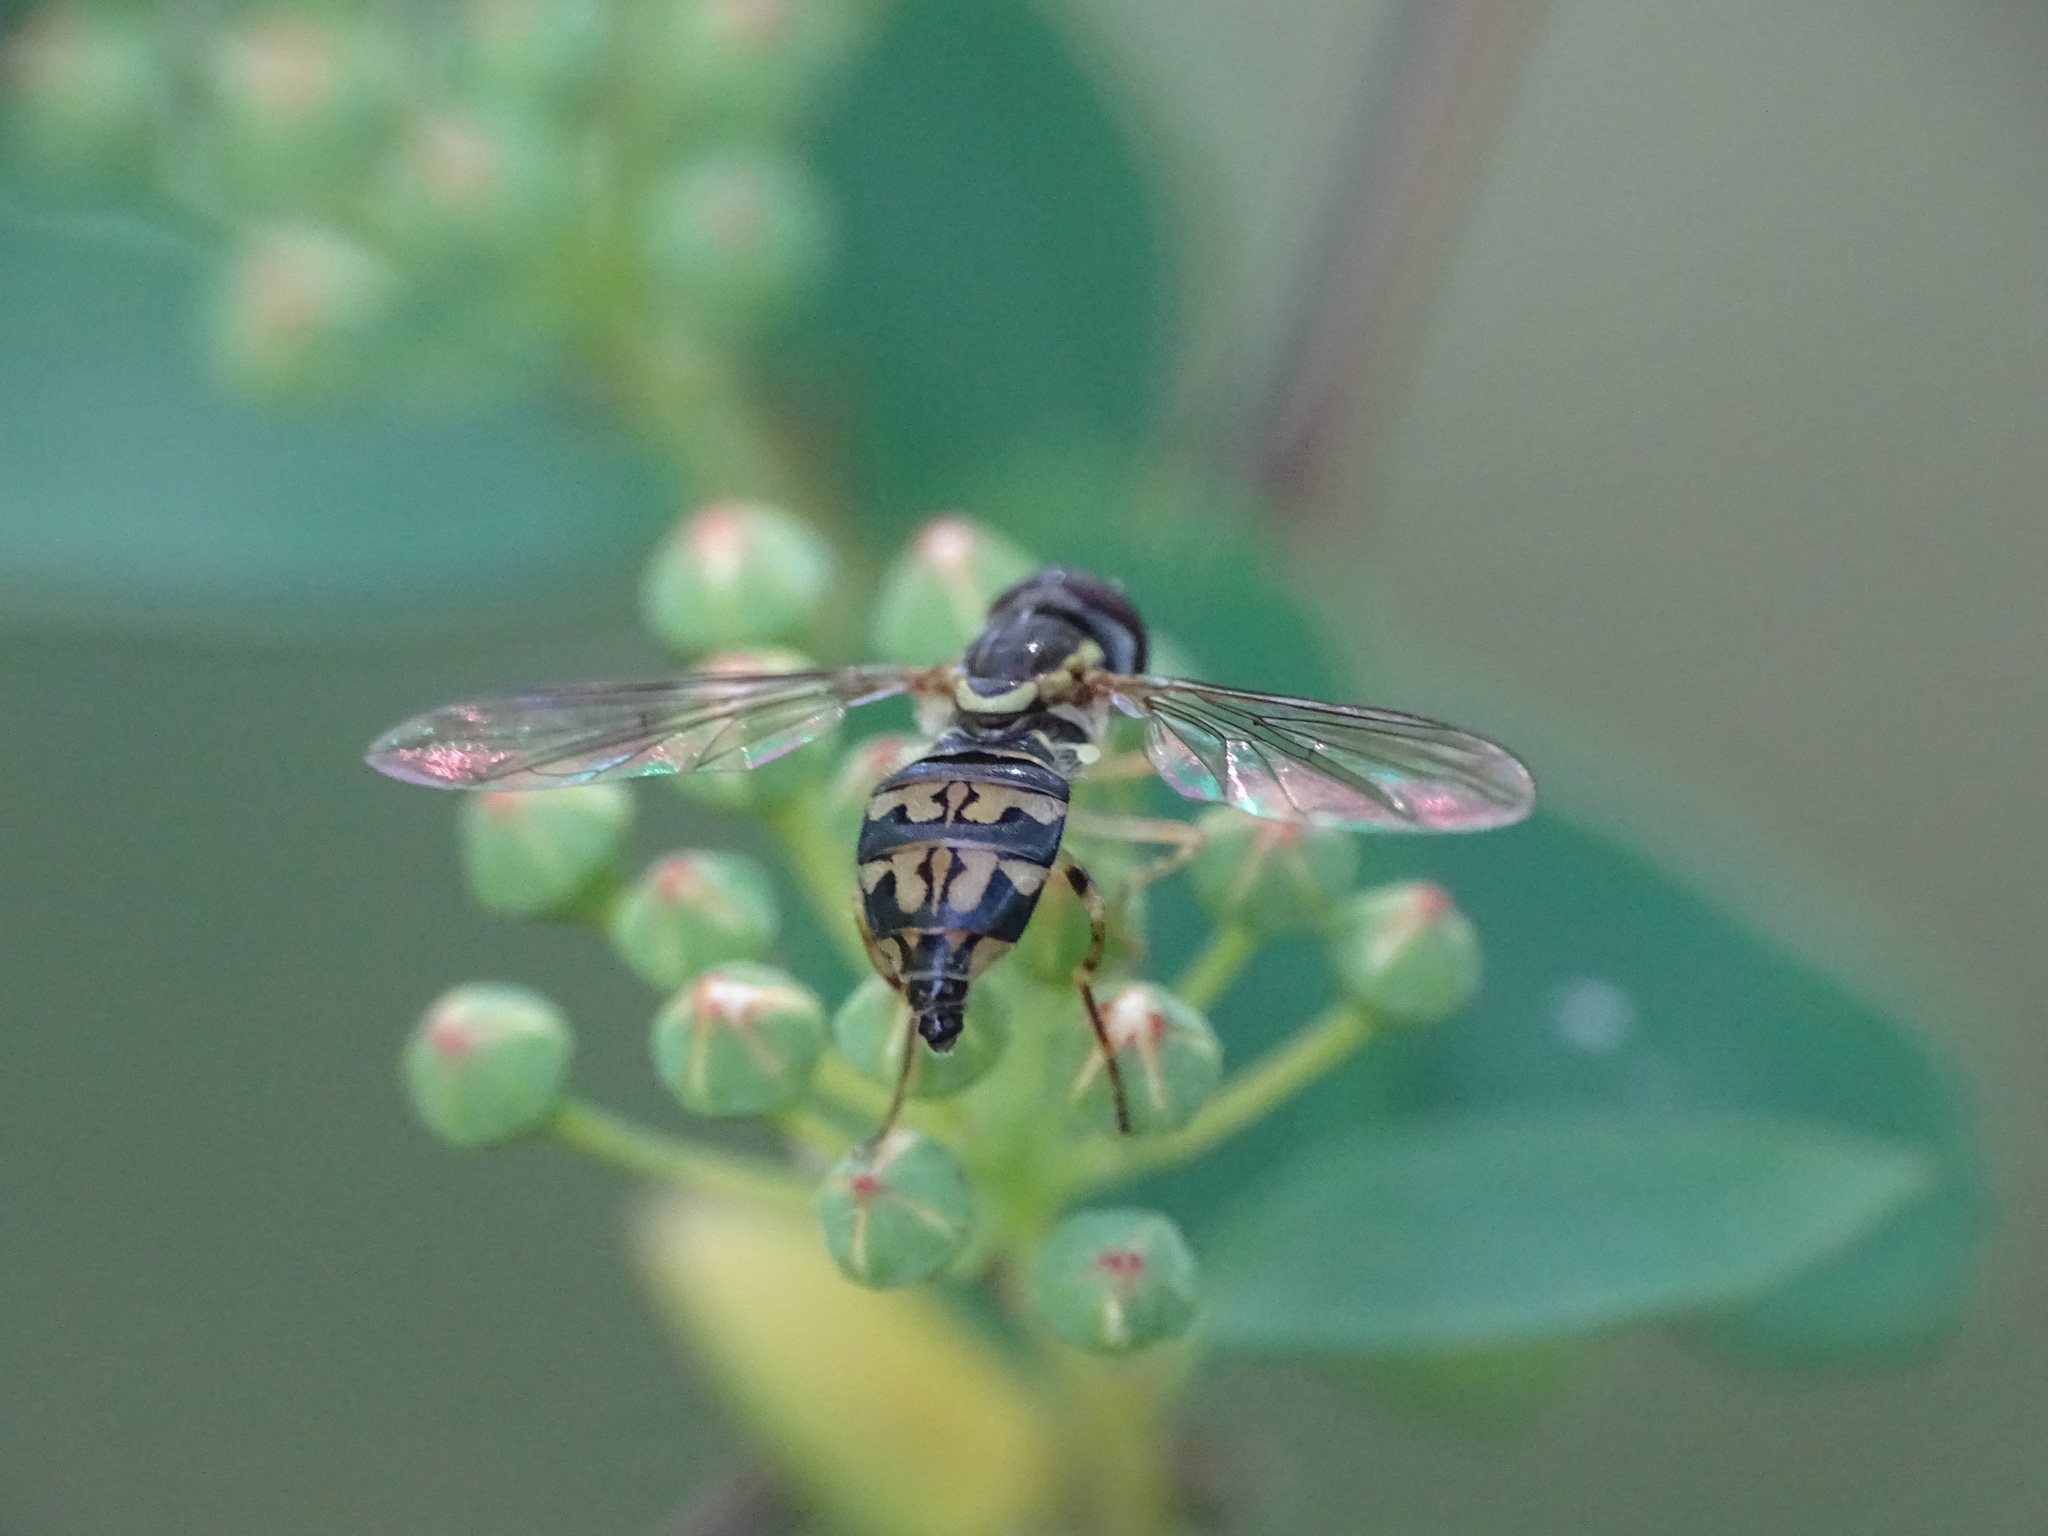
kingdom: Animalia
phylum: Arthropoda
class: Insecta
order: Diptera
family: Syrphidae
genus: Toxomerus
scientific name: Toxomerus geminatus
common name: Eastern calligrapher
